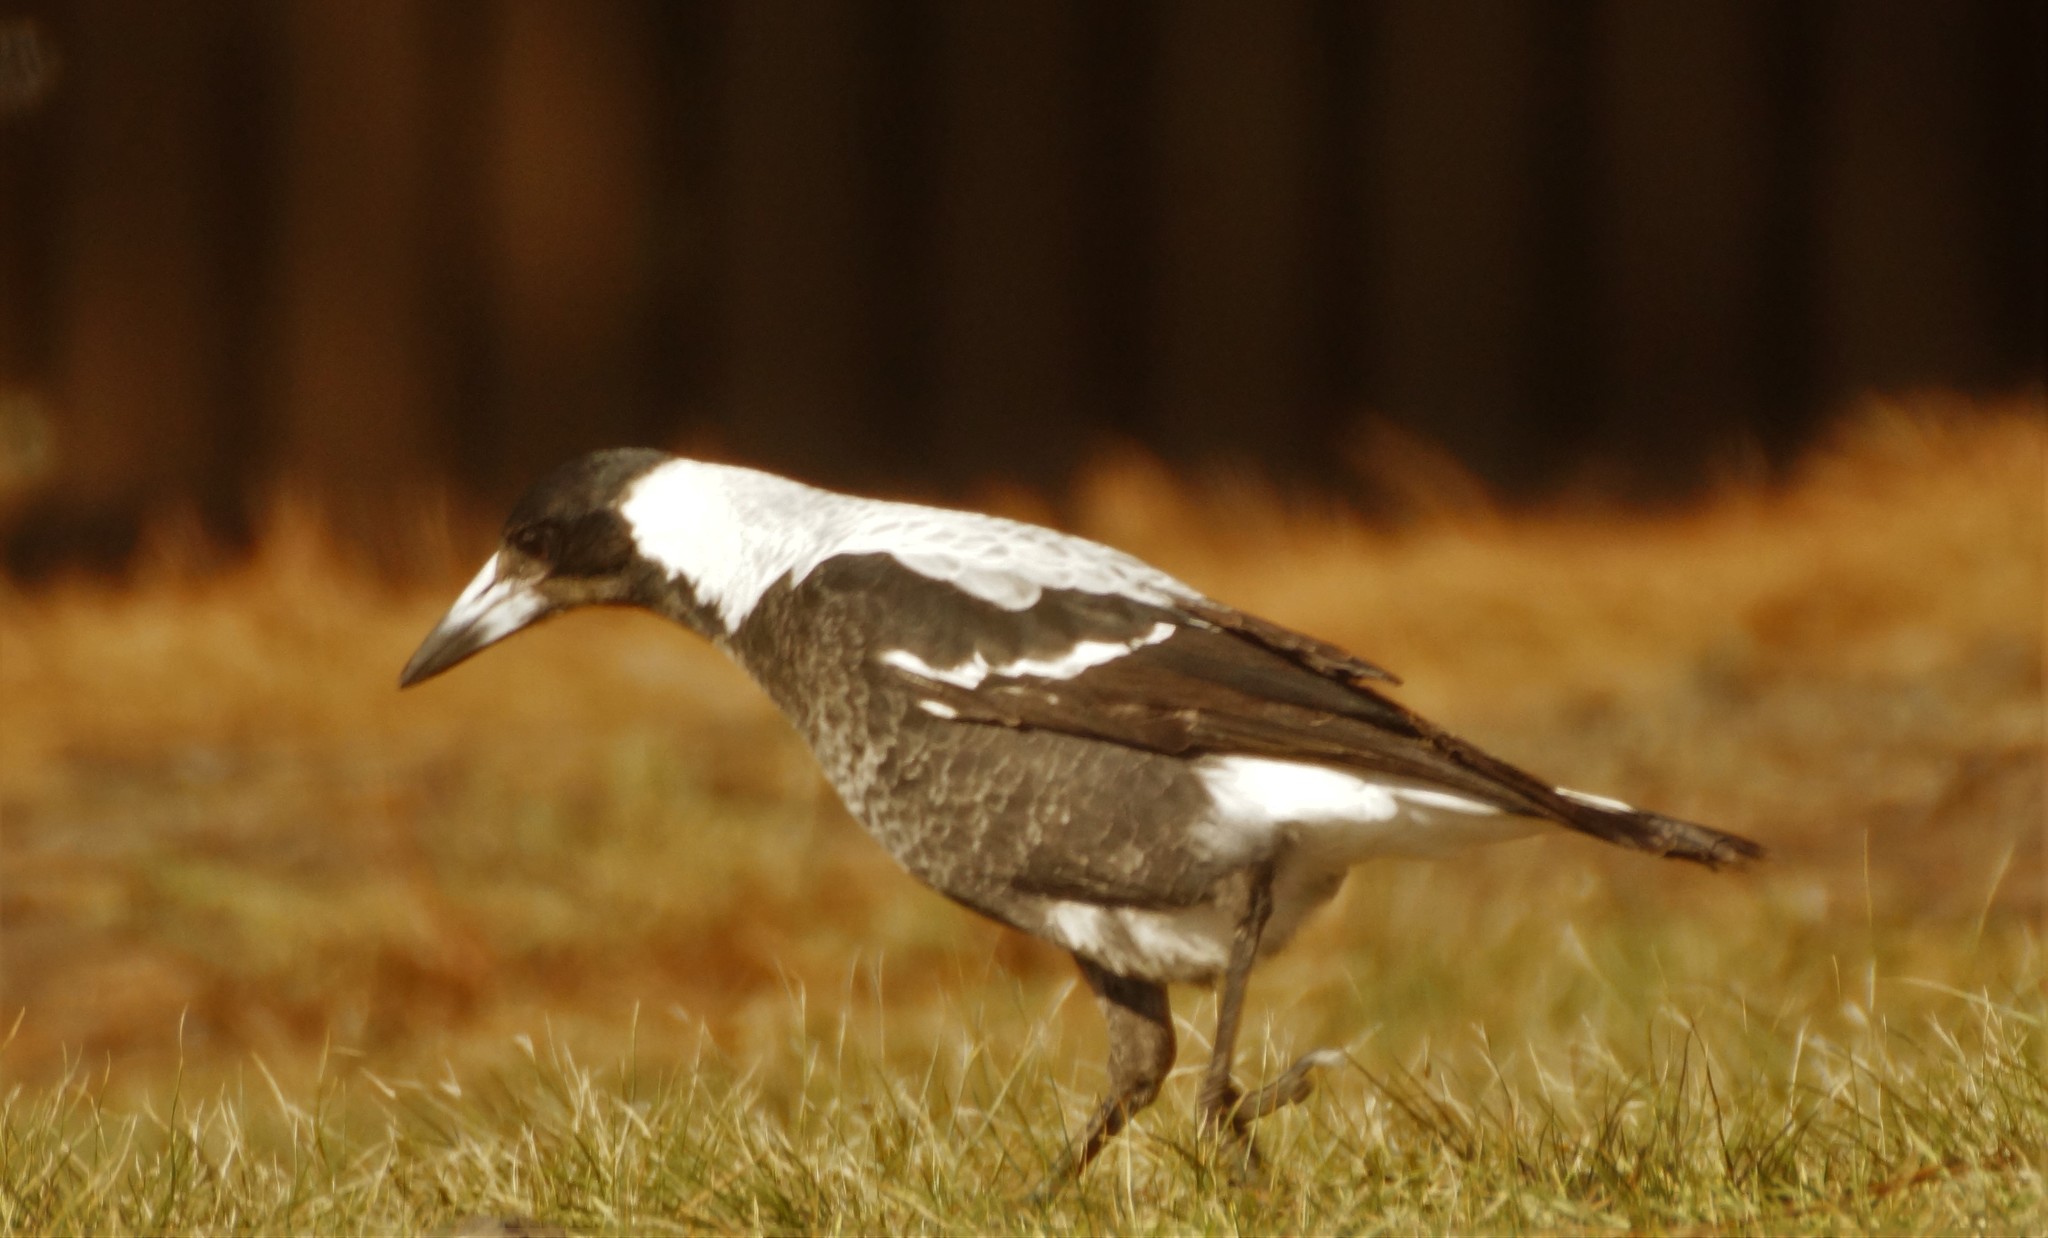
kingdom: Animalia
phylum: Chordata
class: Aves
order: Passeriformes
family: Cracticidae
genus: Gymnorhina
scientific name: Gymnorhina tibicen
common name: Australian magpie
